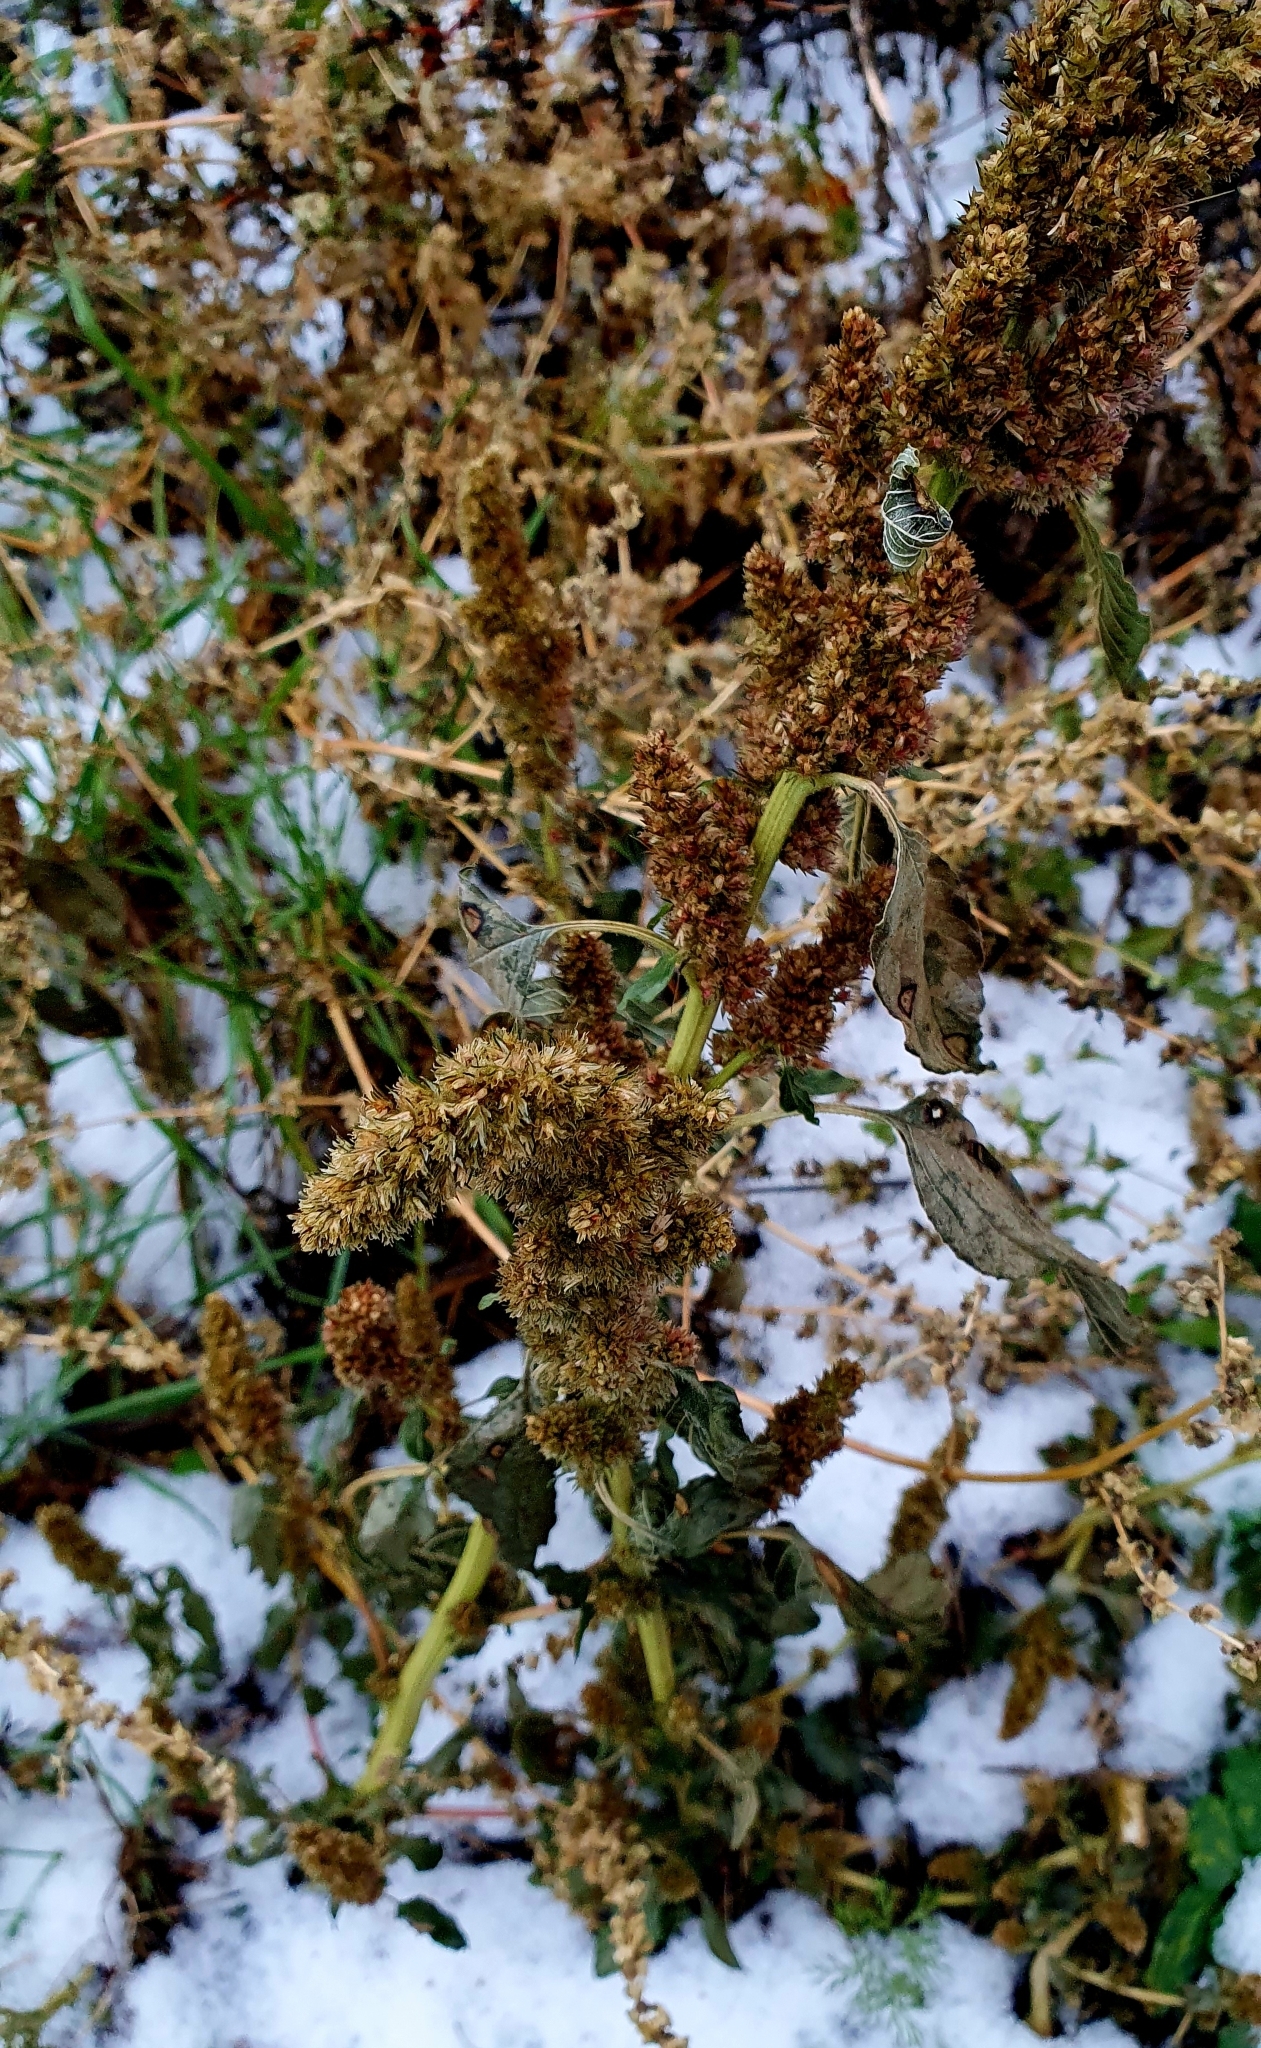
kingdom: Plantae
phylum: Tracheophyta
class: Magnoliopsida
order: Caryophyllales
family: Amaranthaceae
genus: Amaranthus
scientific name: Amaranthus retroflexus
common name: Redroot amaranth
